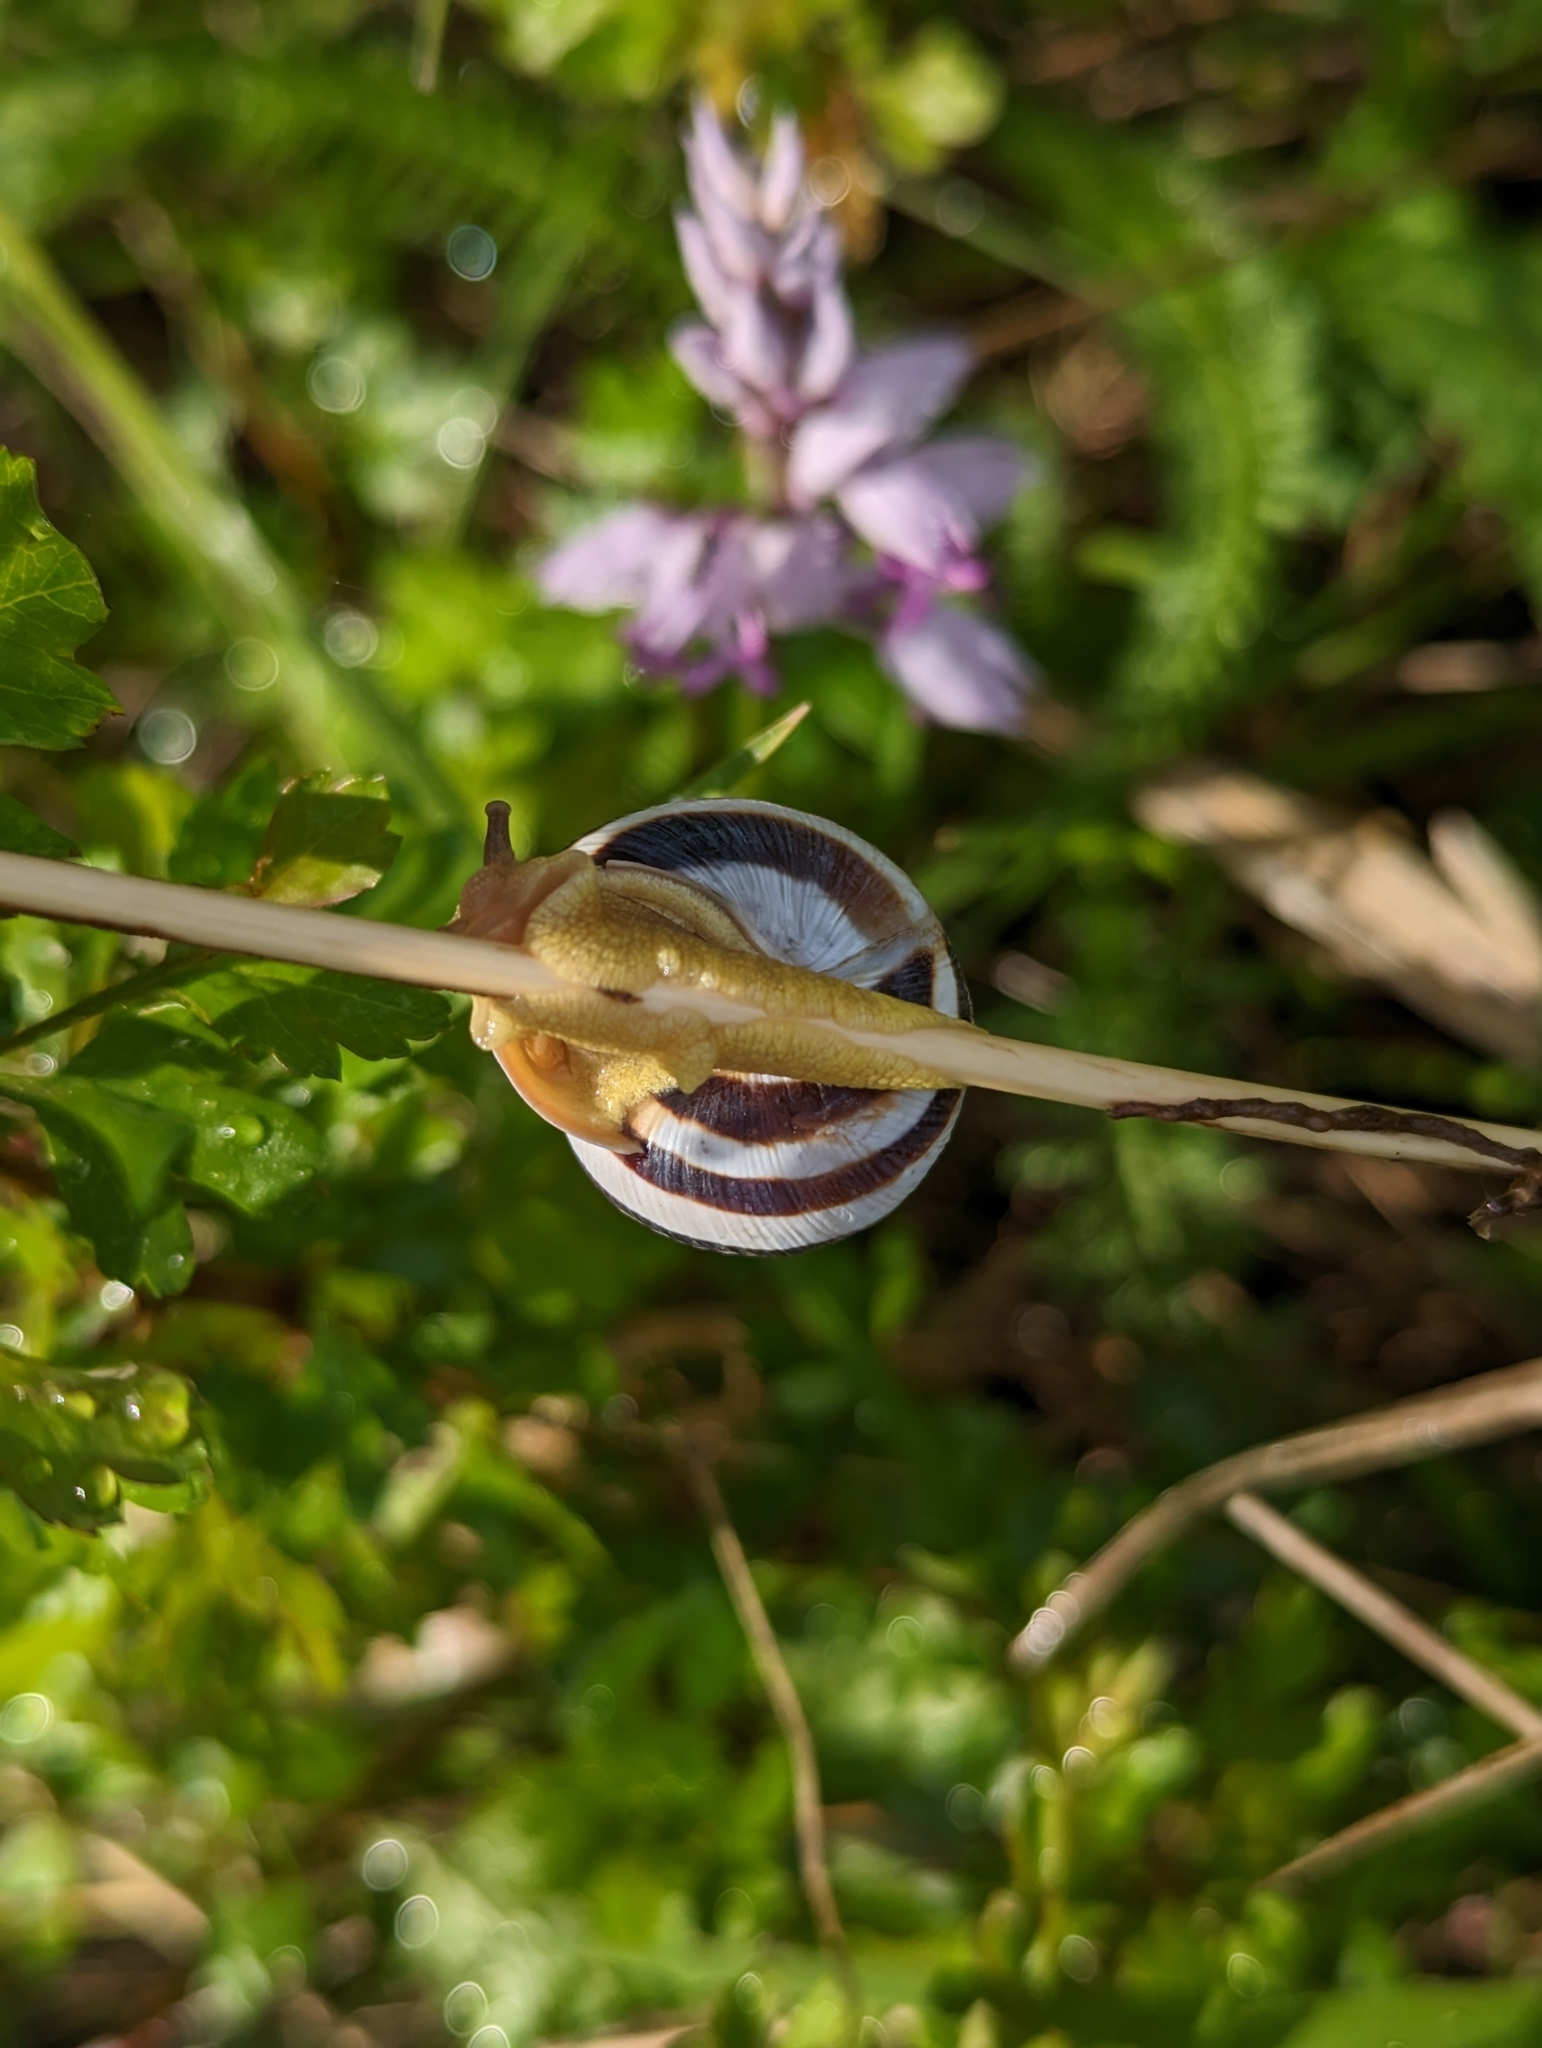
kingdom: Animalia
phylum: Mollusca
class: Gastropoda
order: Stylommatophora
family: Helicidae
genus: Caucasotachea
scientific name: Caucasotachea vindobonensis
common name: European helicid land snail
